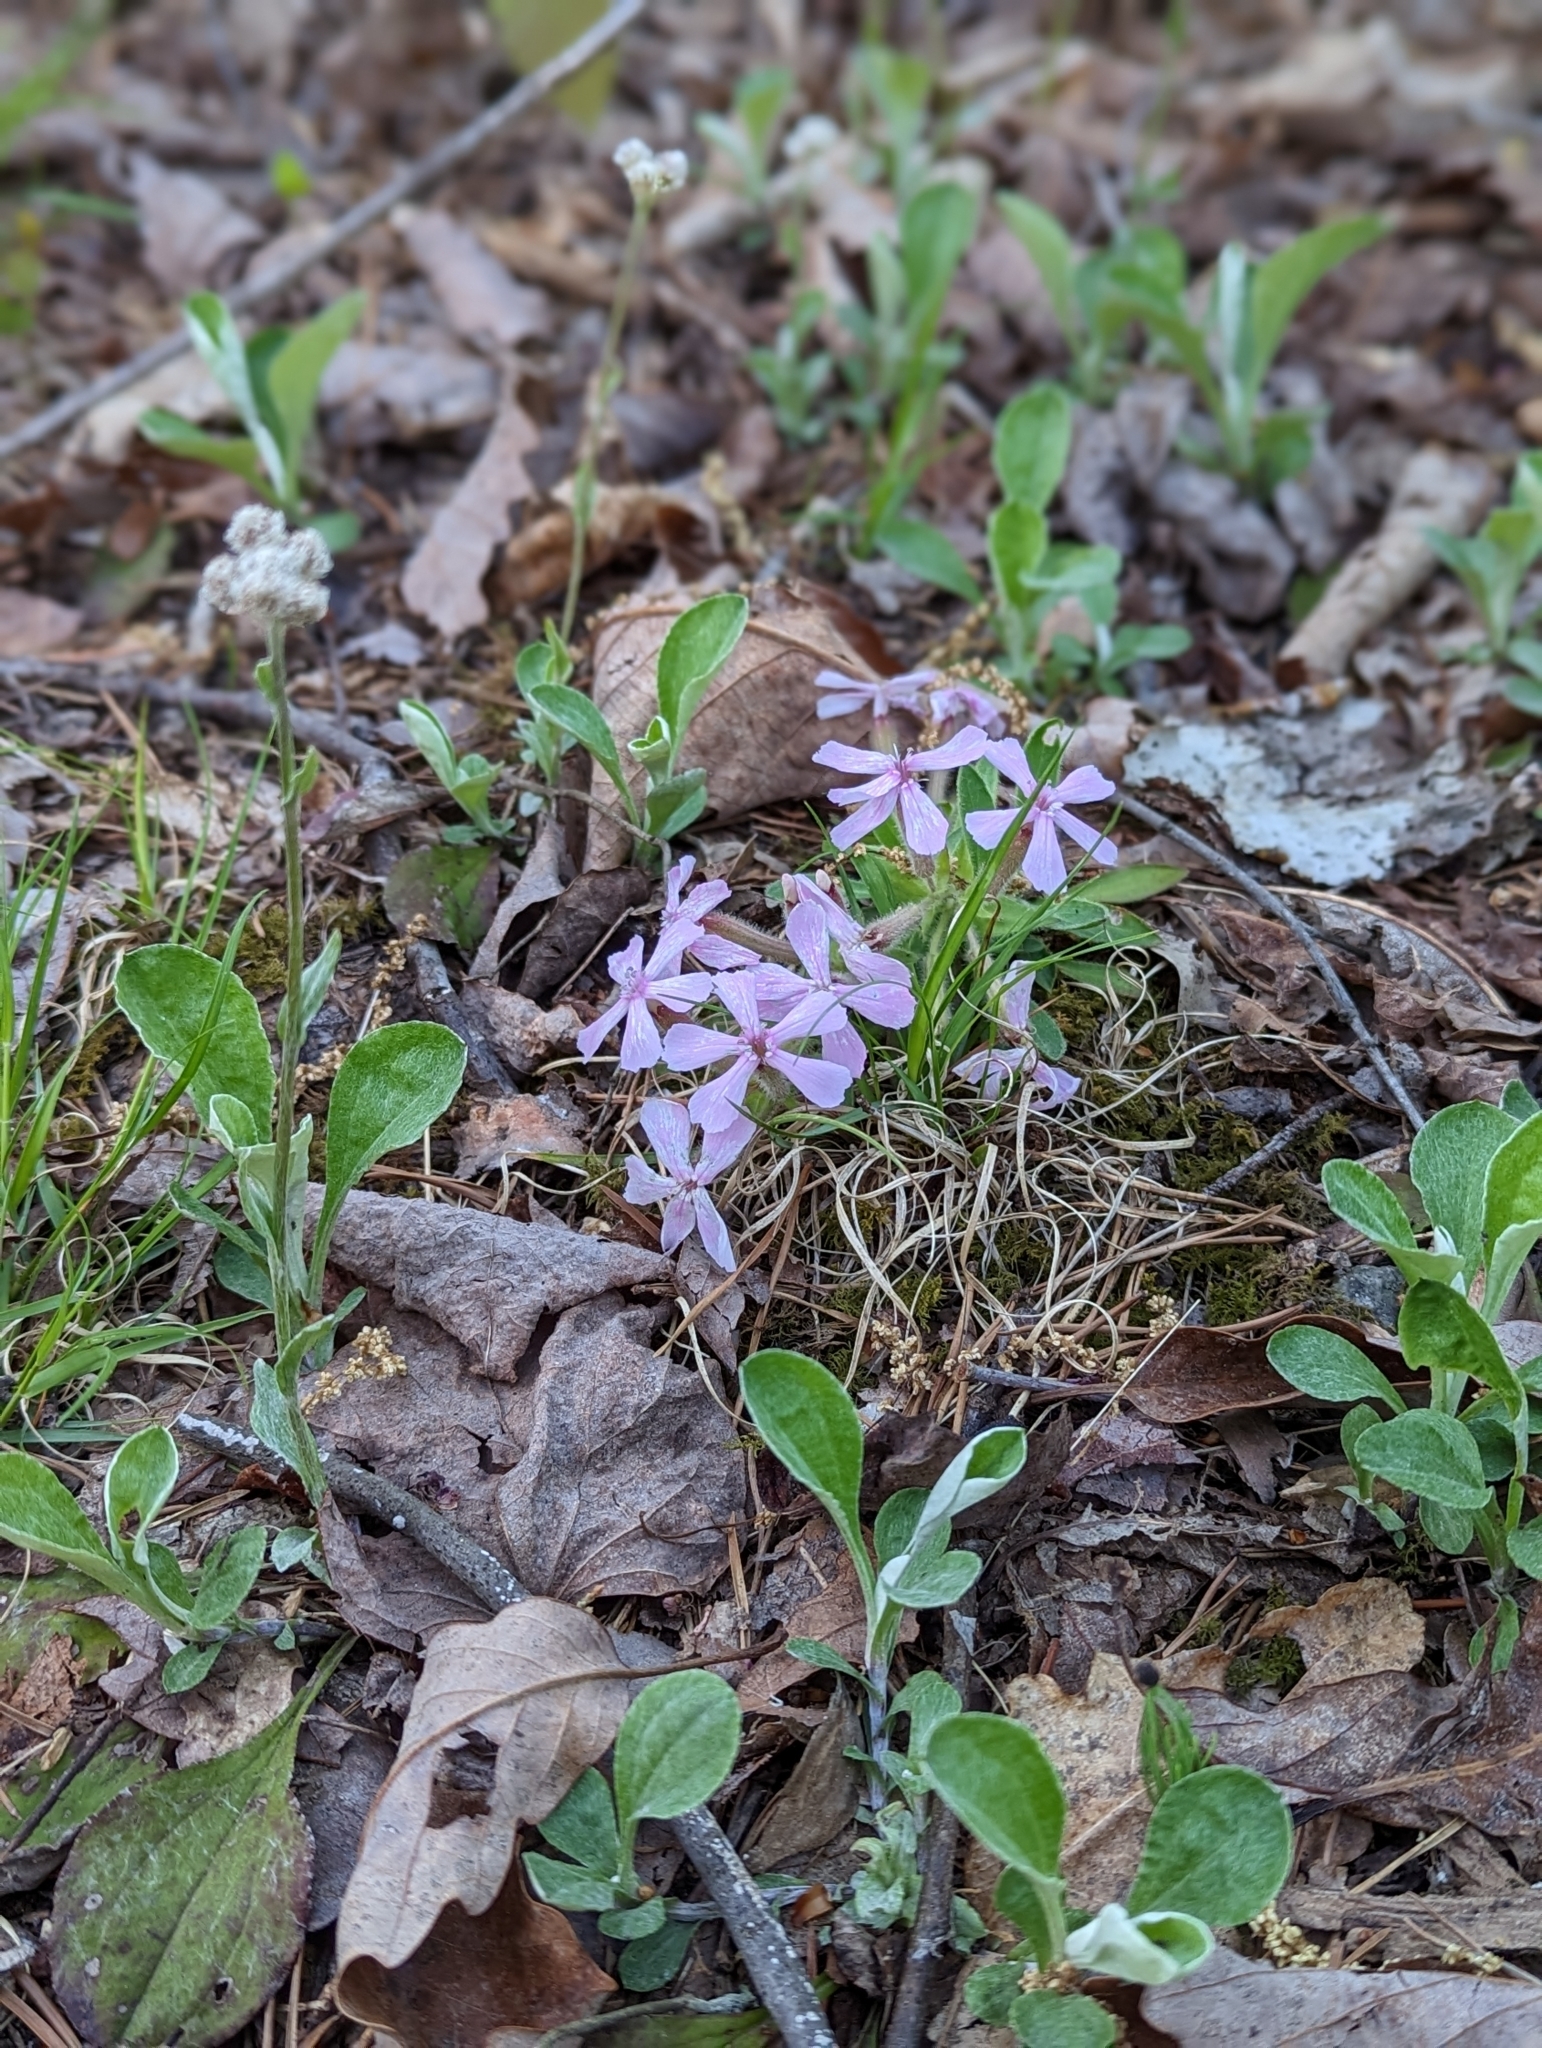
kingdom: Plantae
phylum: Tracheophyta
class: Magnoliopsida
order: Caryophyllales
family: Caryophyllaceae
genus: Silene
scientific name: Silene caroliniana
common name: Sticky catchfly
